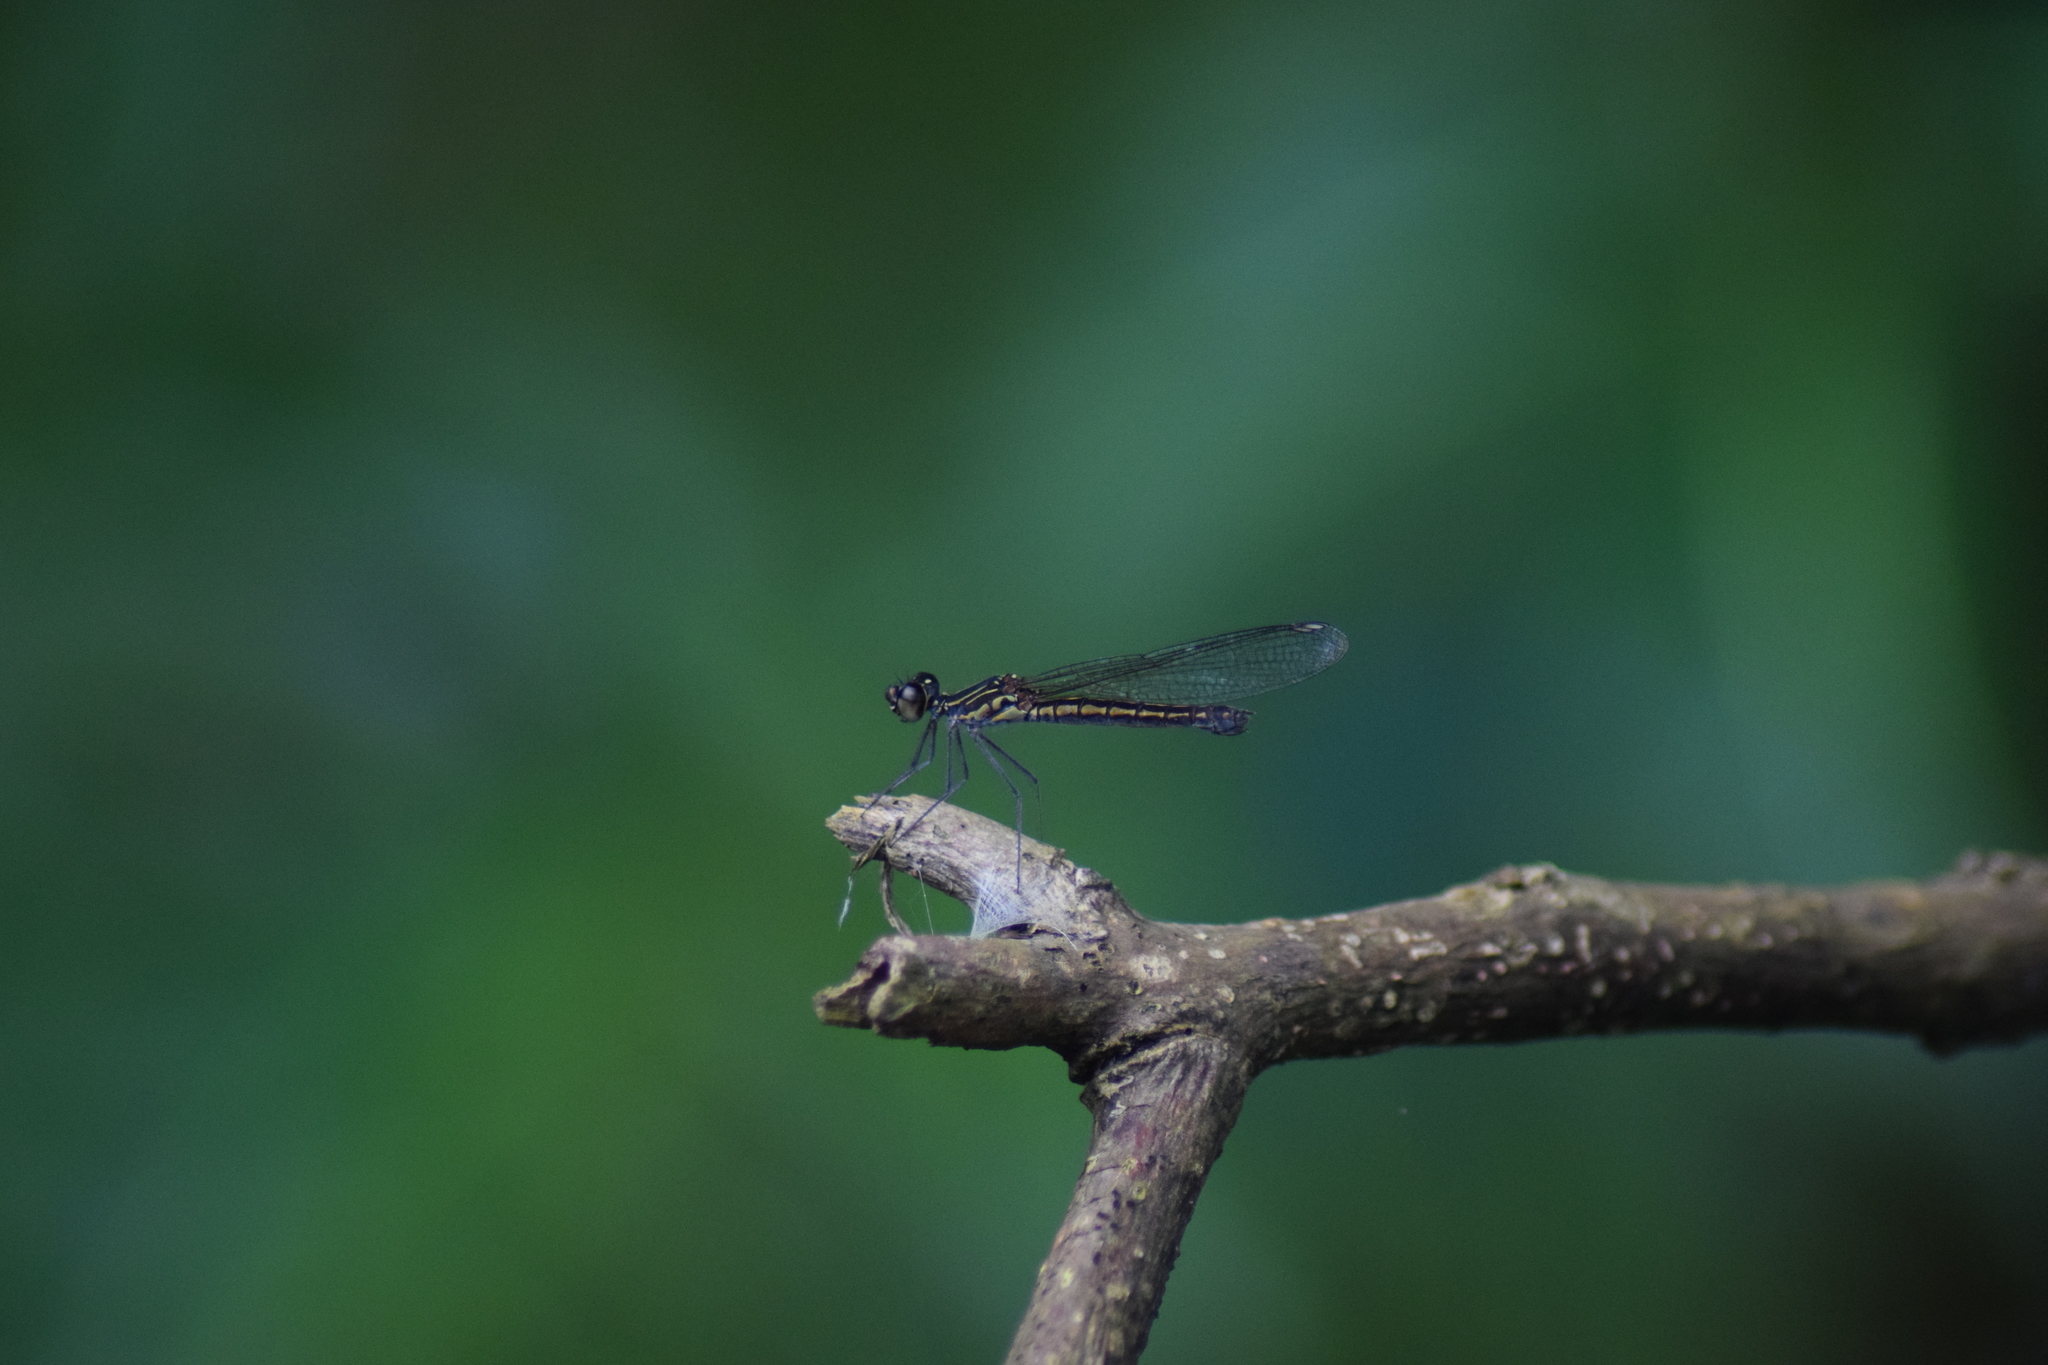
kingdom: Animalia
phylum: Arthropoda
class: Insecta
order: Odonata
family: Chlorocyphidae
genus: Libellago
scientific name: Libellago indica
